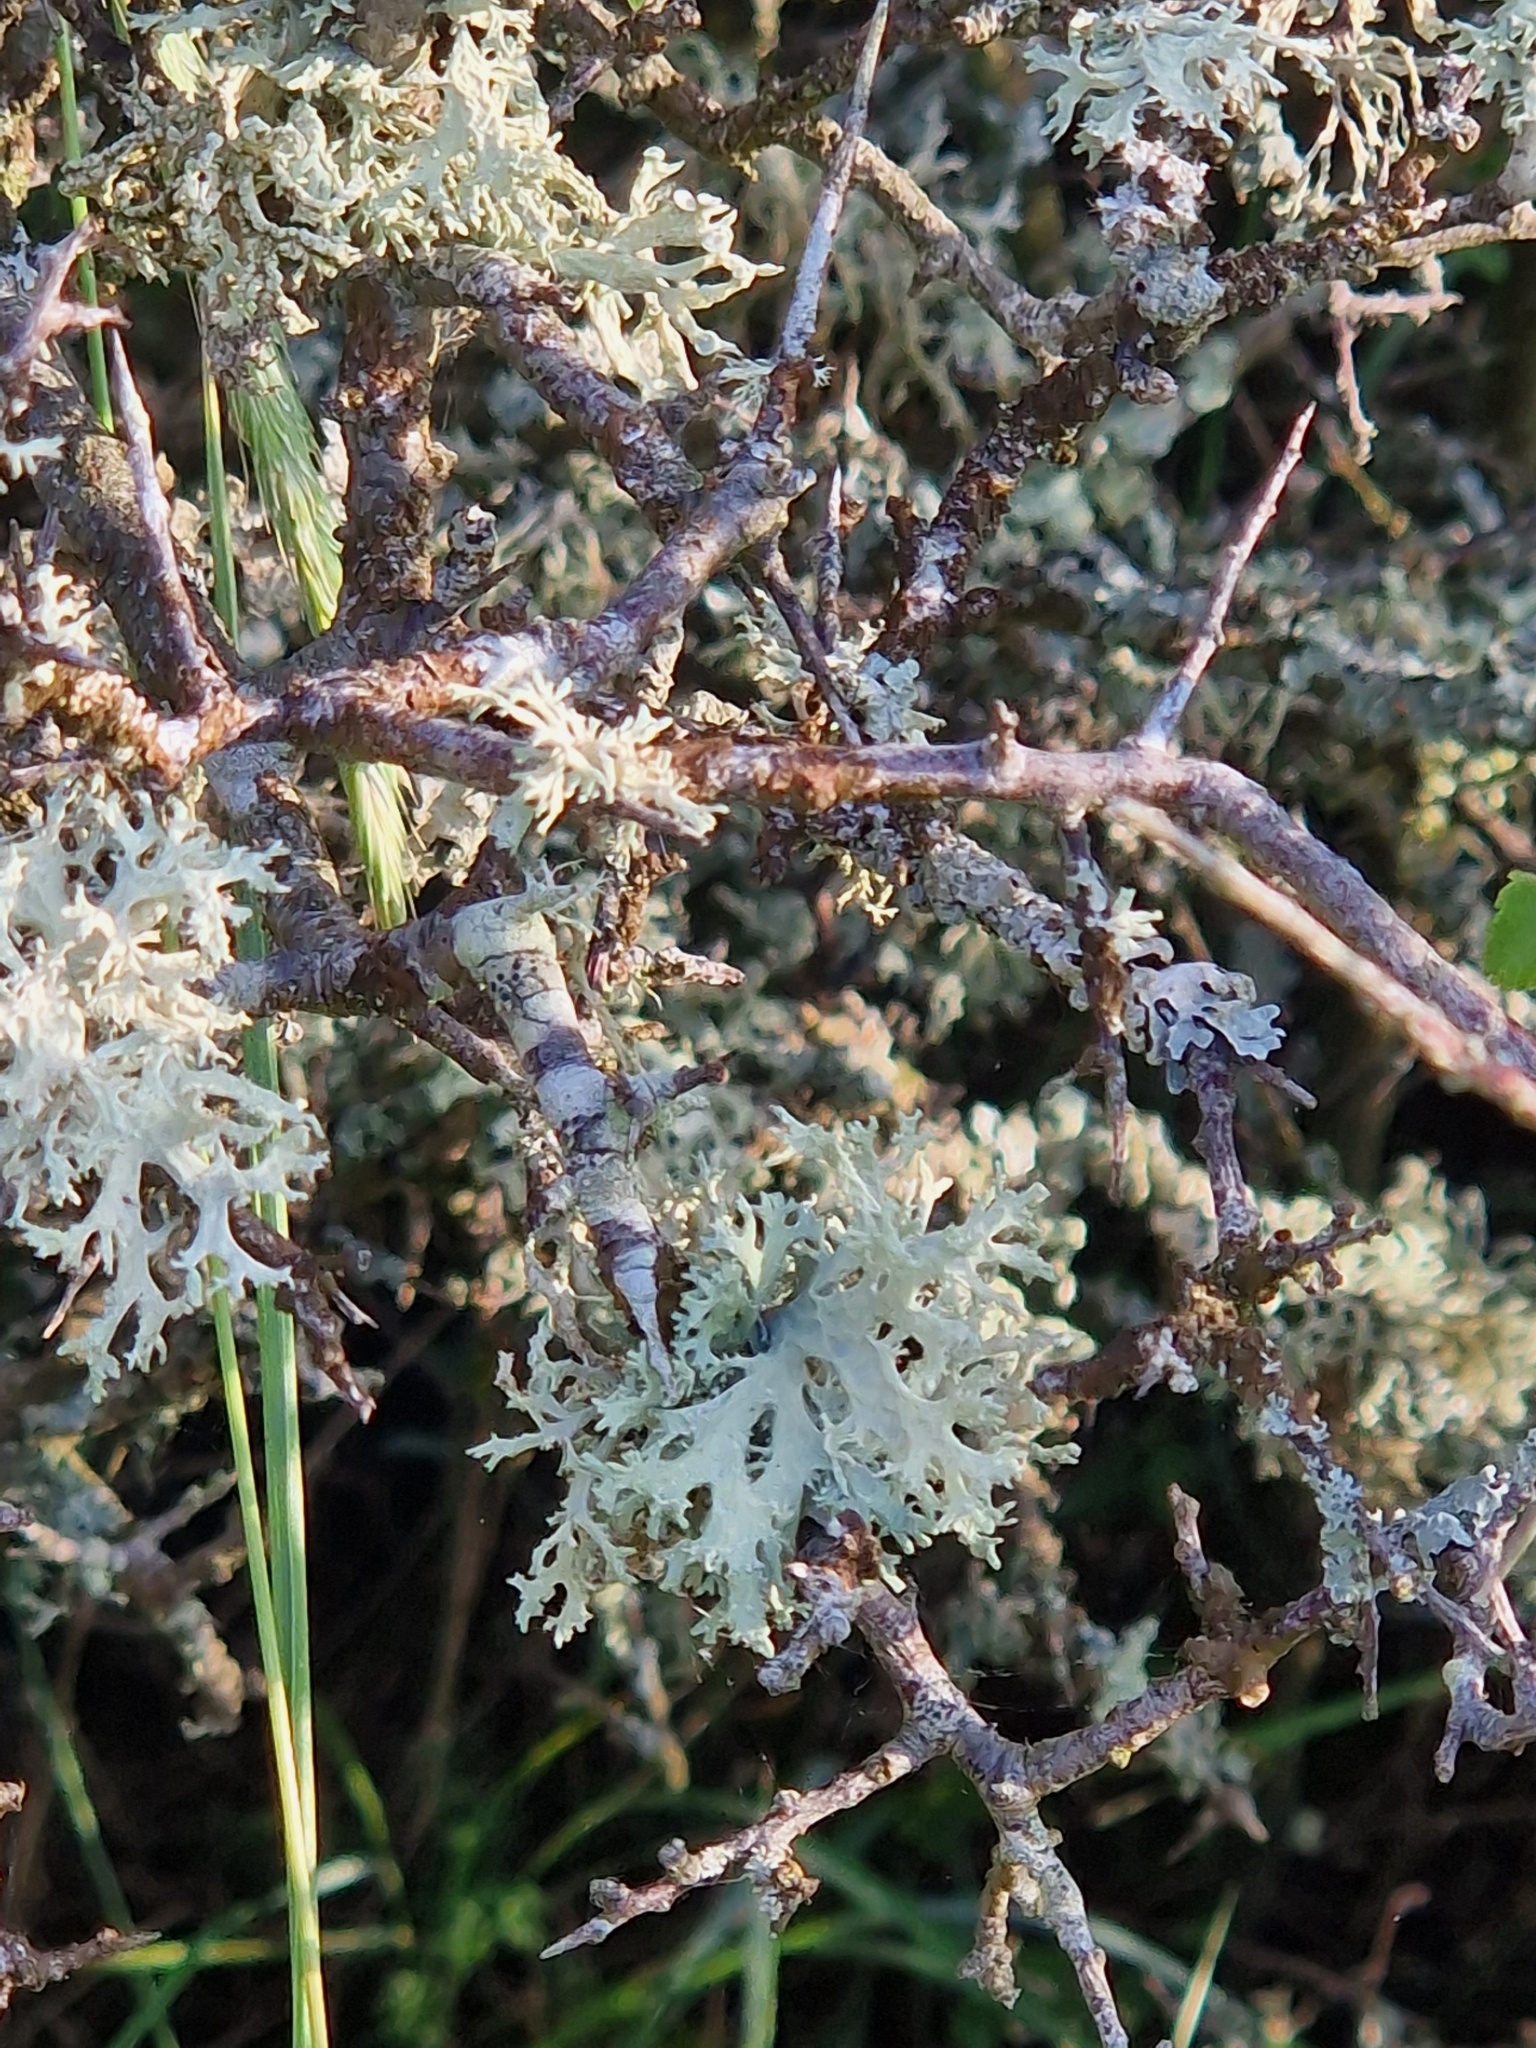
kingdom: Fungi
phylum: Ascomycota
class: Lecanoromycetes
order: Lecanorales
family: Parmeliaceae
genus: Evernia
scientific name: Evernia prunastri
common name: Oak moss
